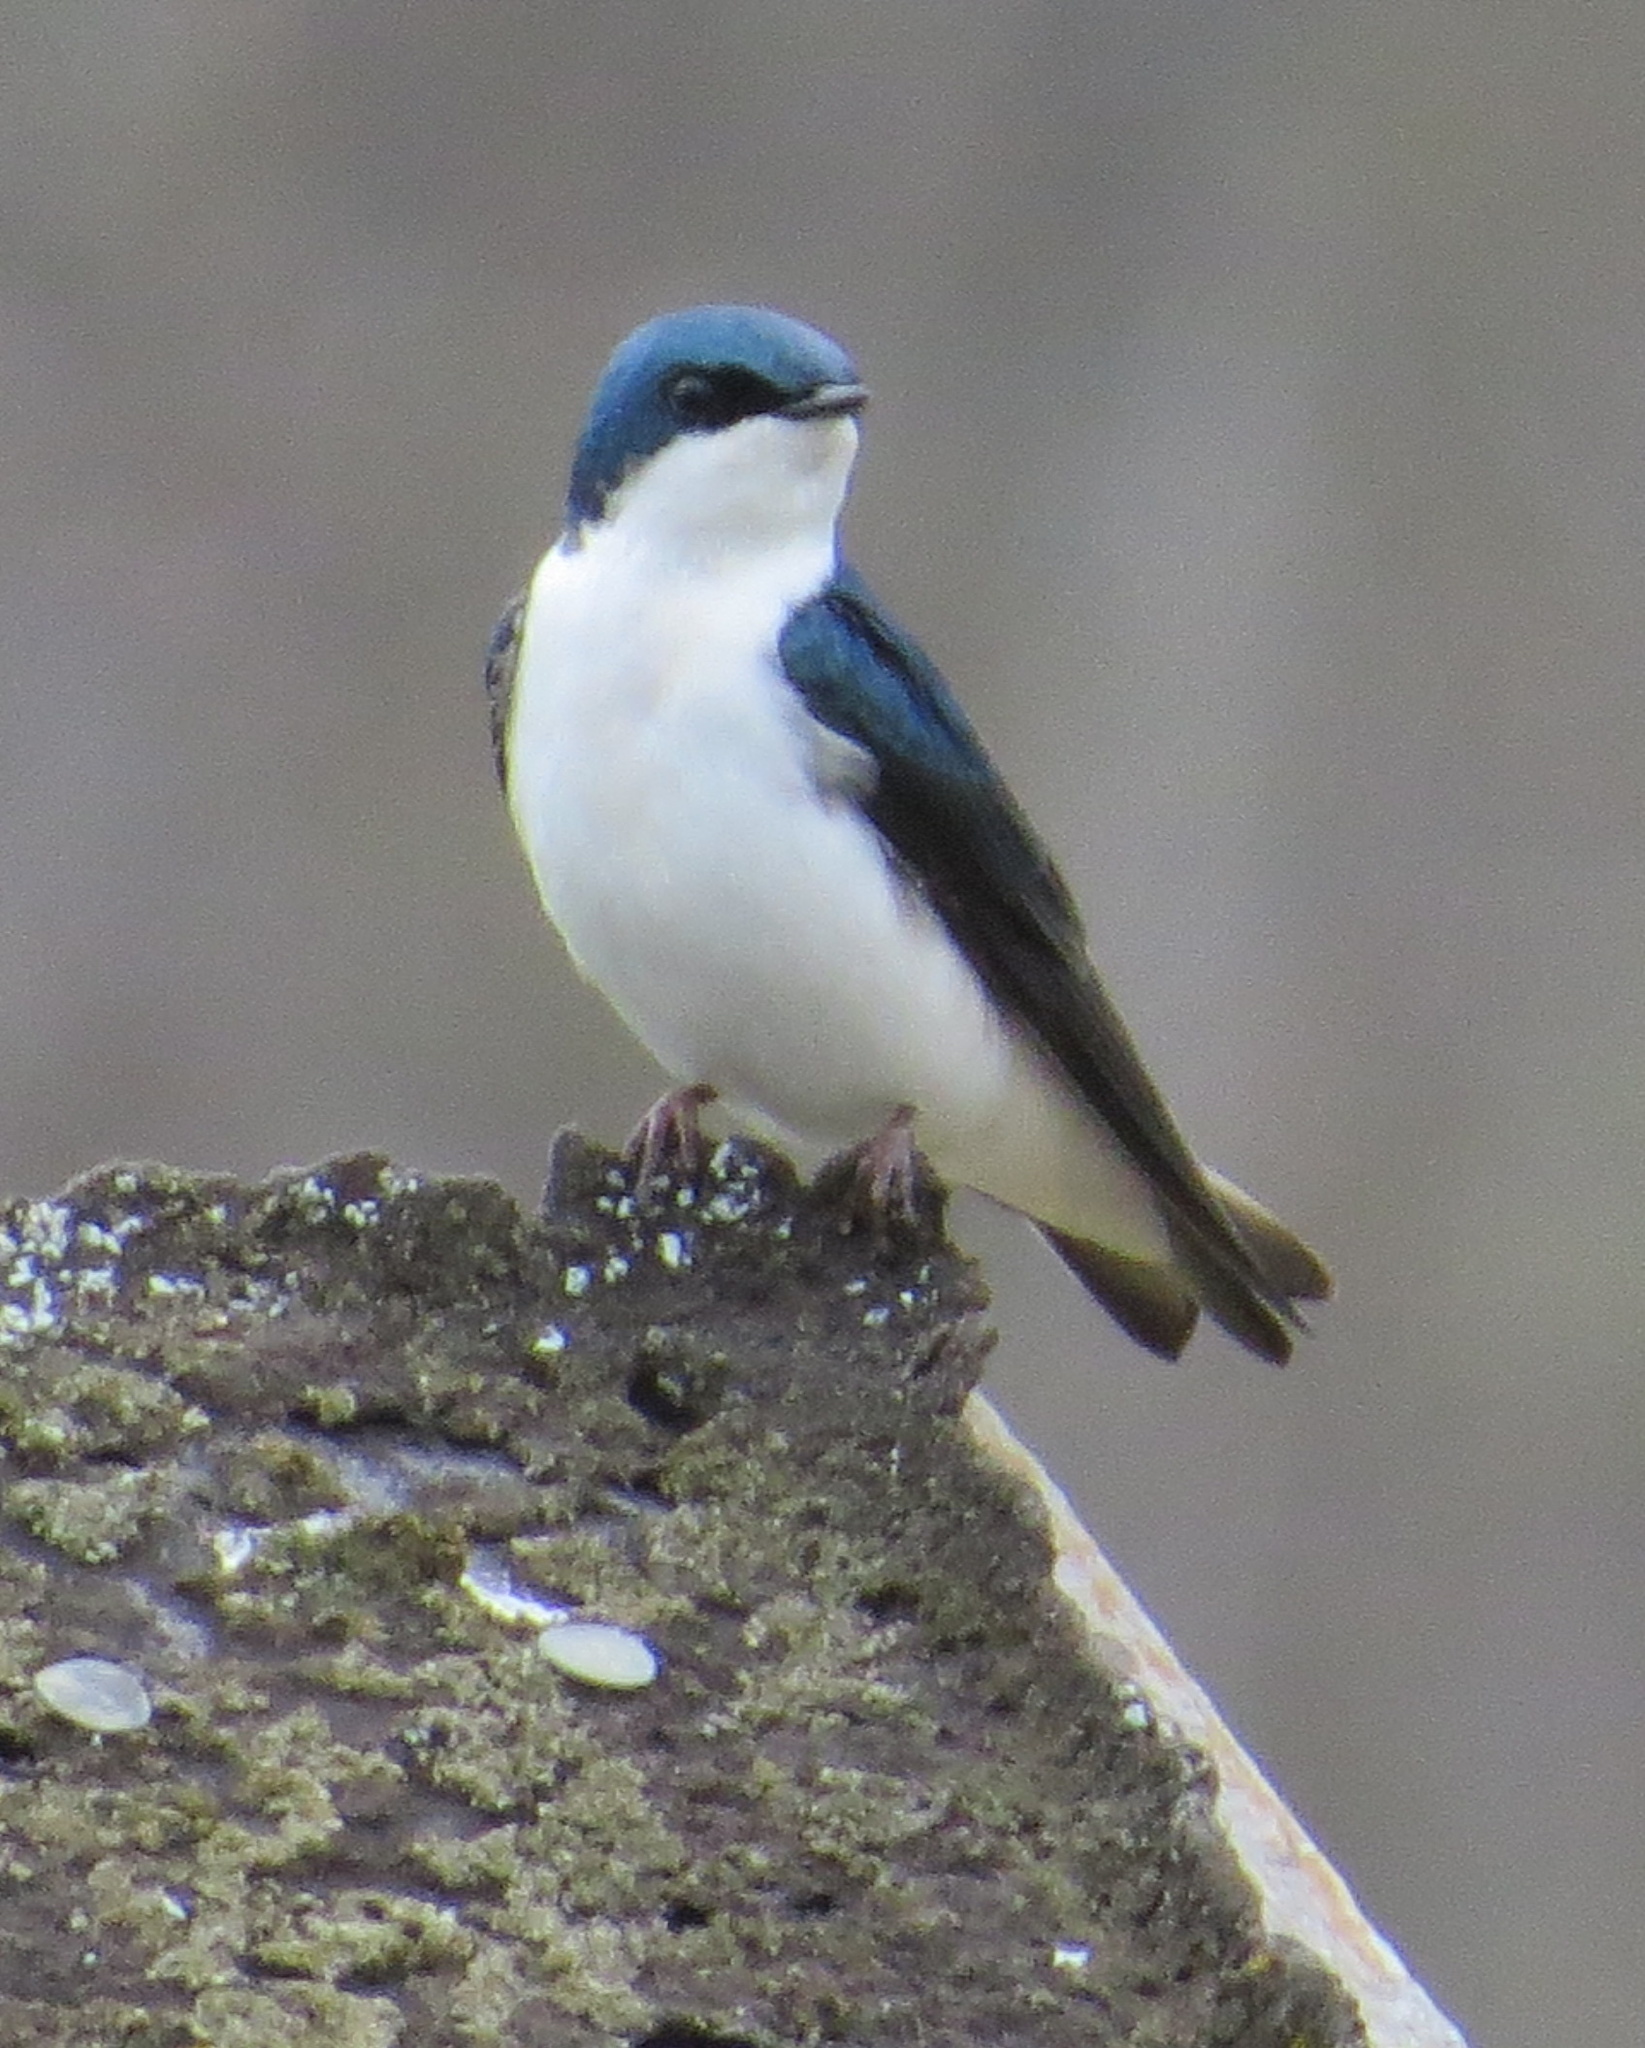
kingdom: Animalia
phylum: Chordata
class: Aves
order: Passeriformes
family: Hirundinidae
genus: Tachycineta
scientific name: Tachycineta bicolor
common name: Tree swallow
